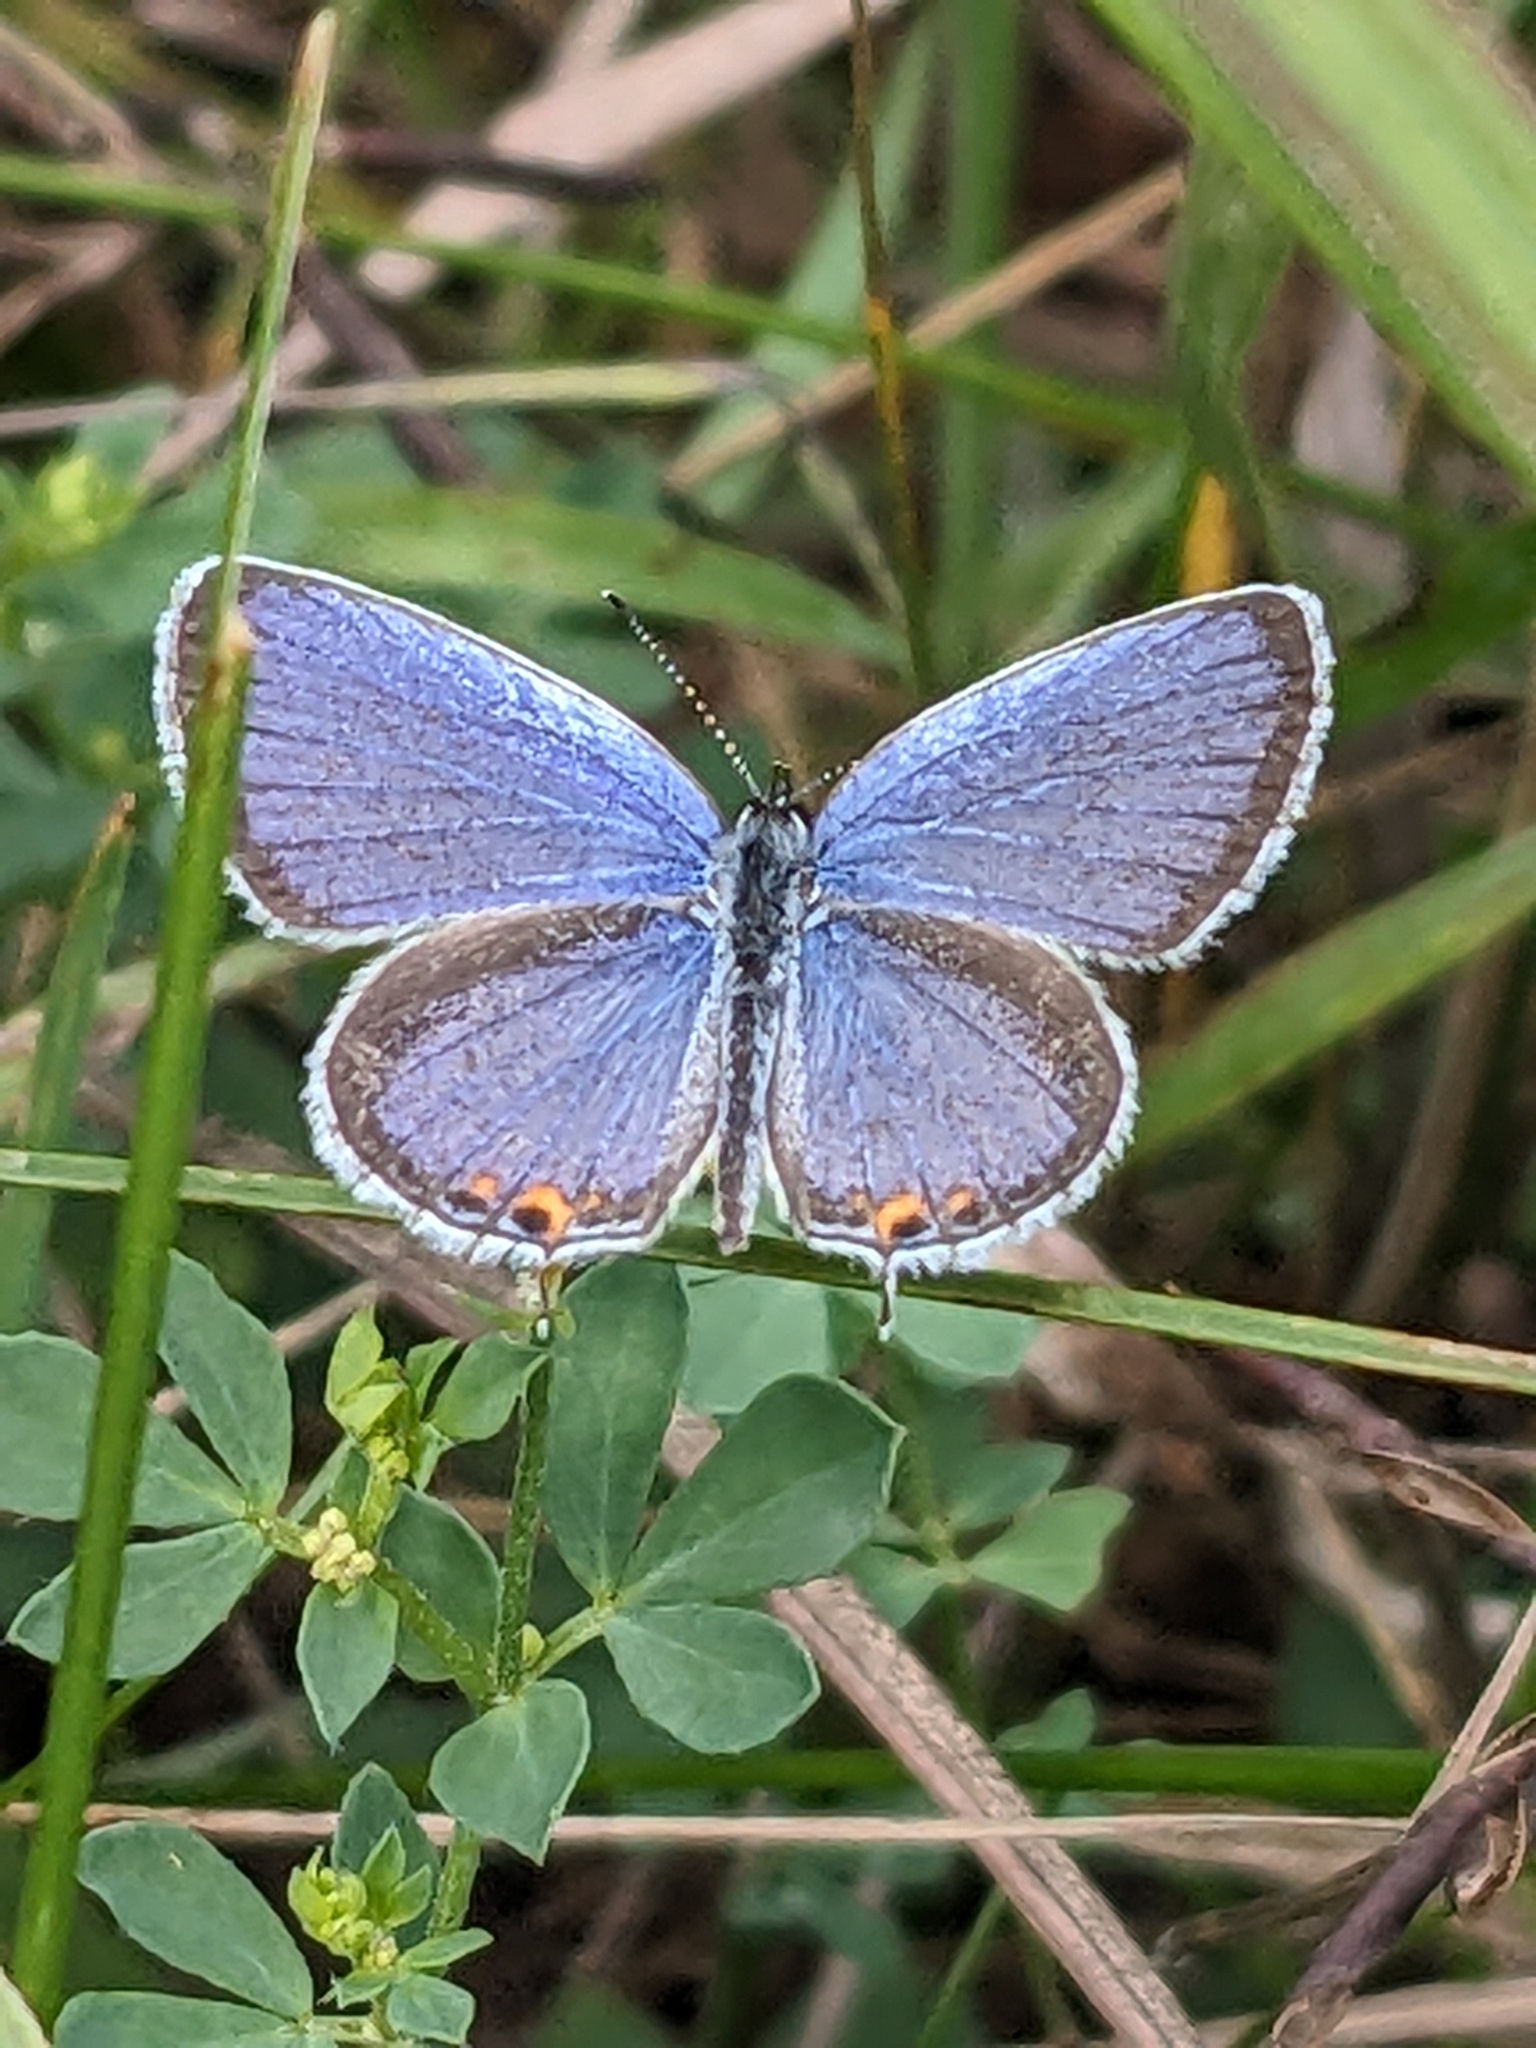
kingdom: Animalia
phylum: Arthropoda
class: Insecta
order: Lepidoptera
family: Lycaenidae
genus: Elkalyce
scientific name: Elkalyce comyntas
